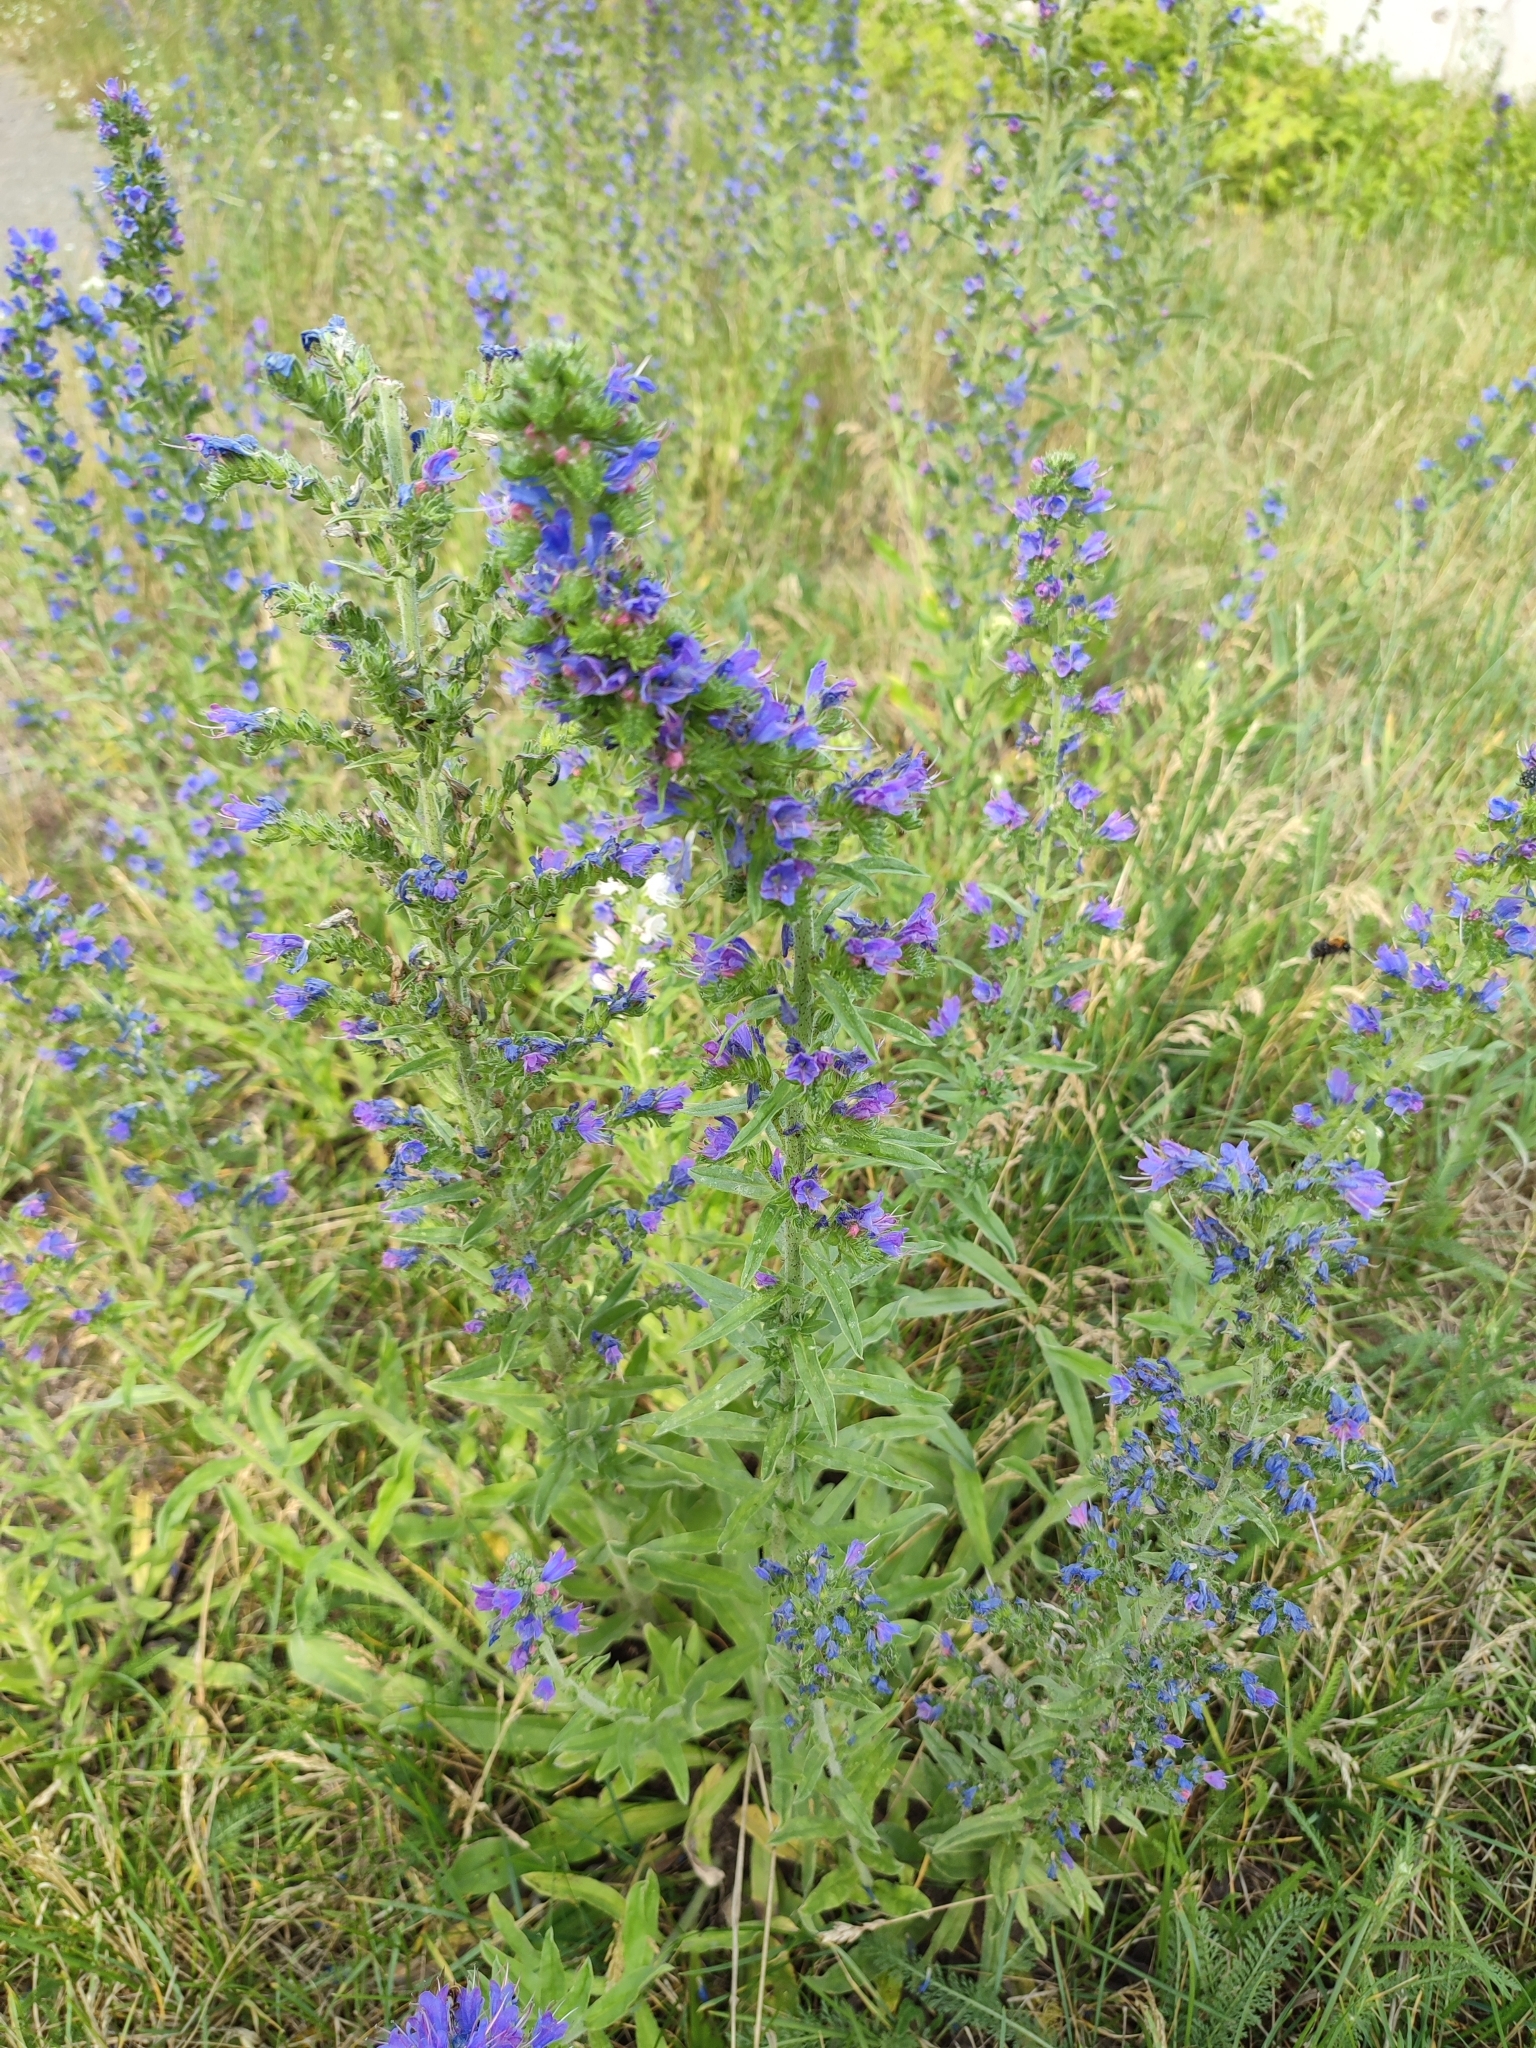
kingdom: Plantae
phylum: Tracheophyta
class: Magnoliopsida
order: Boraginales
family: Boraginaceae
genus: Echium
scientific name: Echium vulgare
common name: Common viper's bugloss
